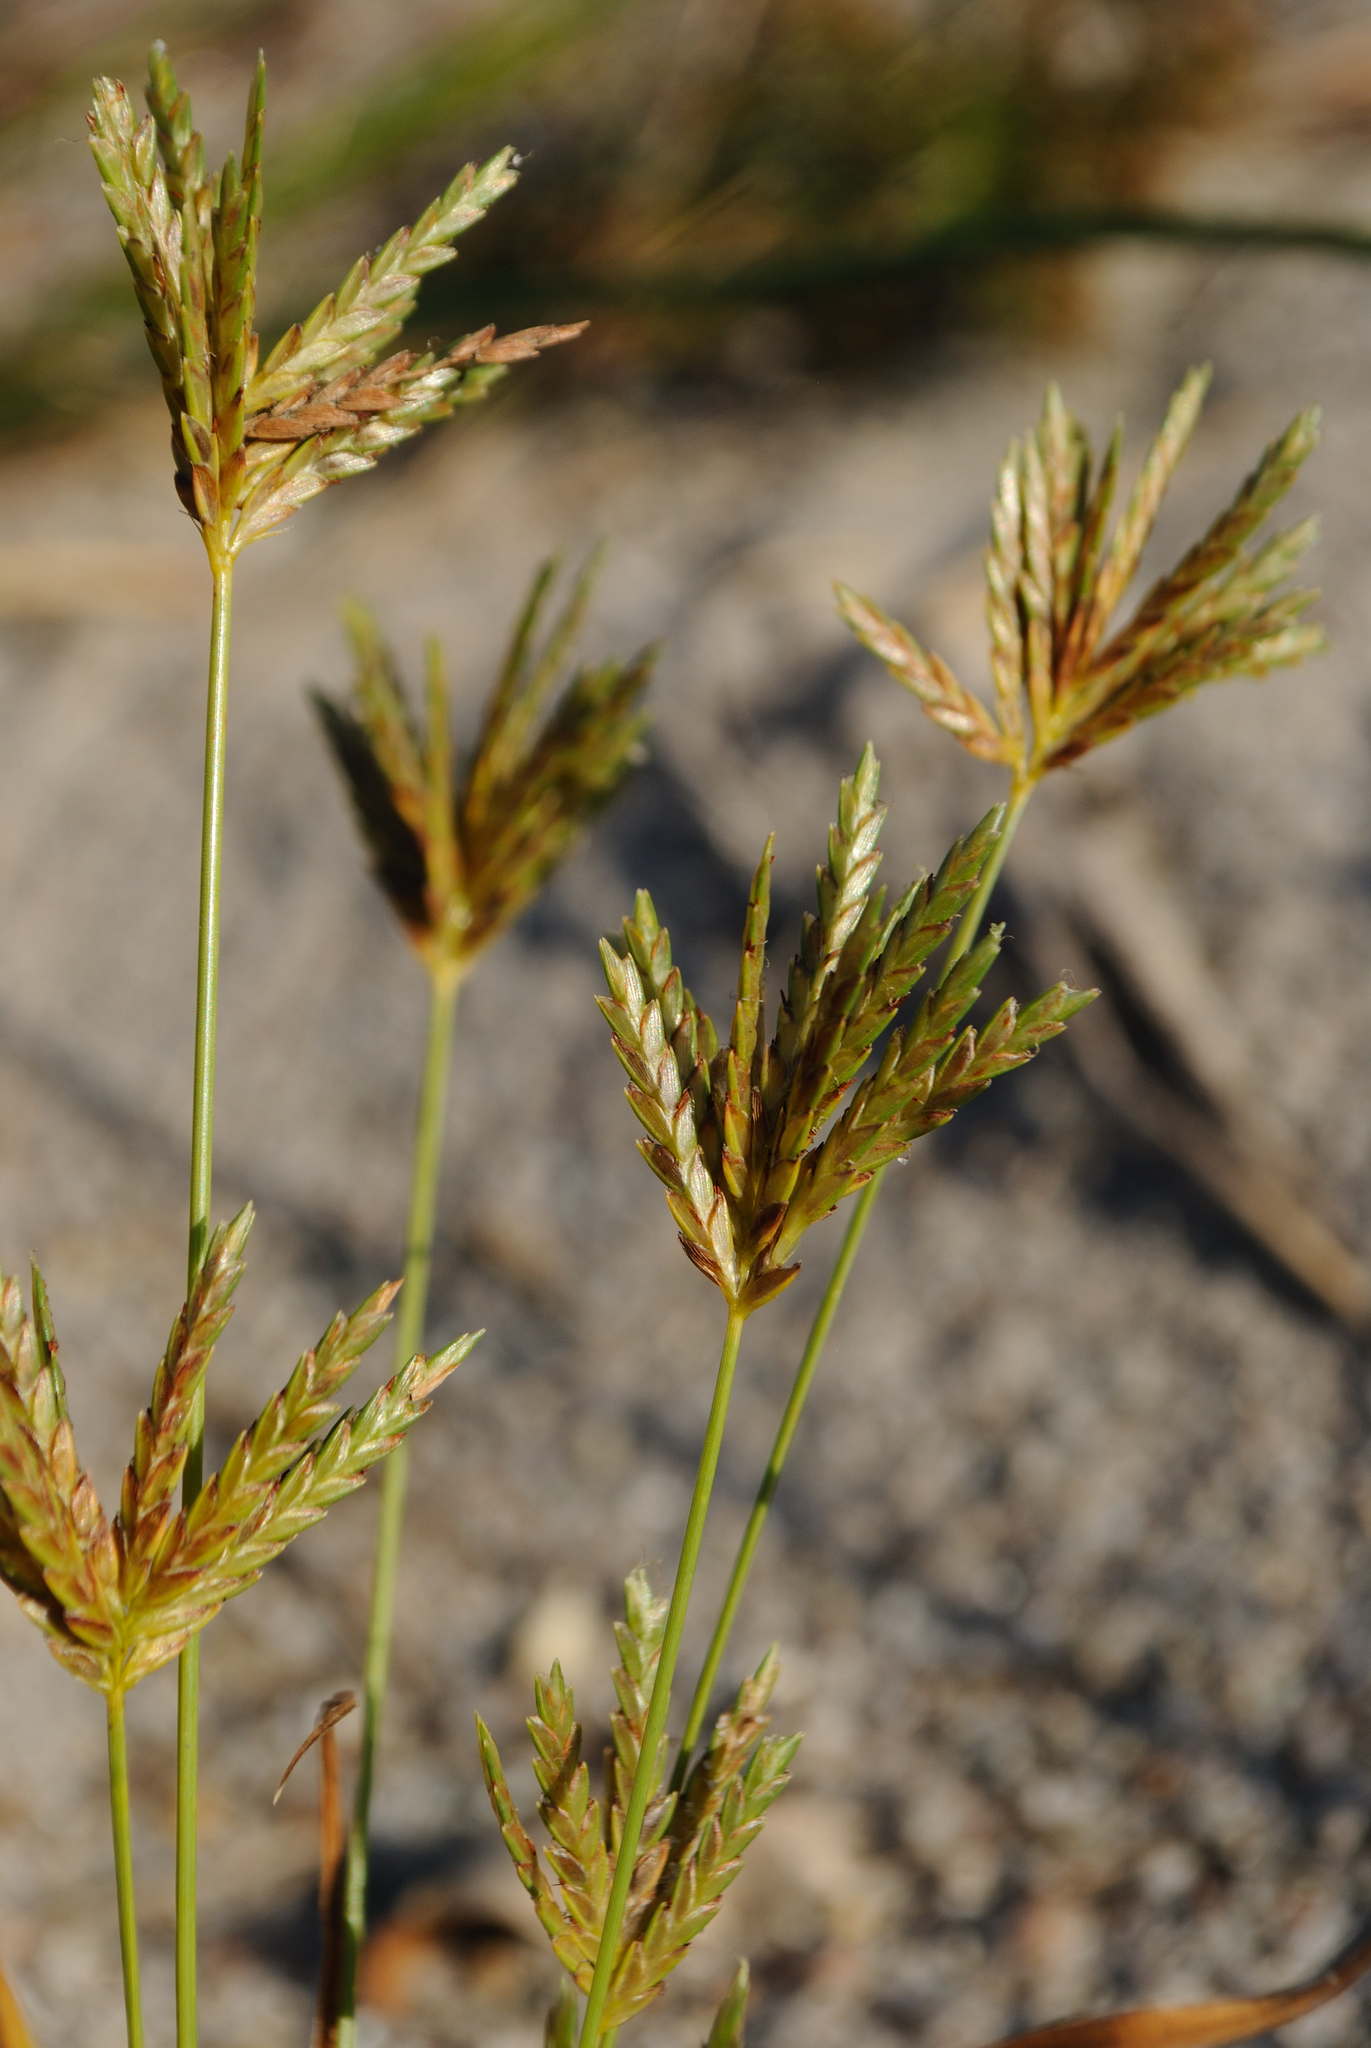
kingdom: Plantae
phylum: Tracheophyta
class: Liliopsida
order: Poales
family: Cyperaceae
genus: Cyperus
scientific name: Cyperus mesochorus
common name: Midland flatsedge
